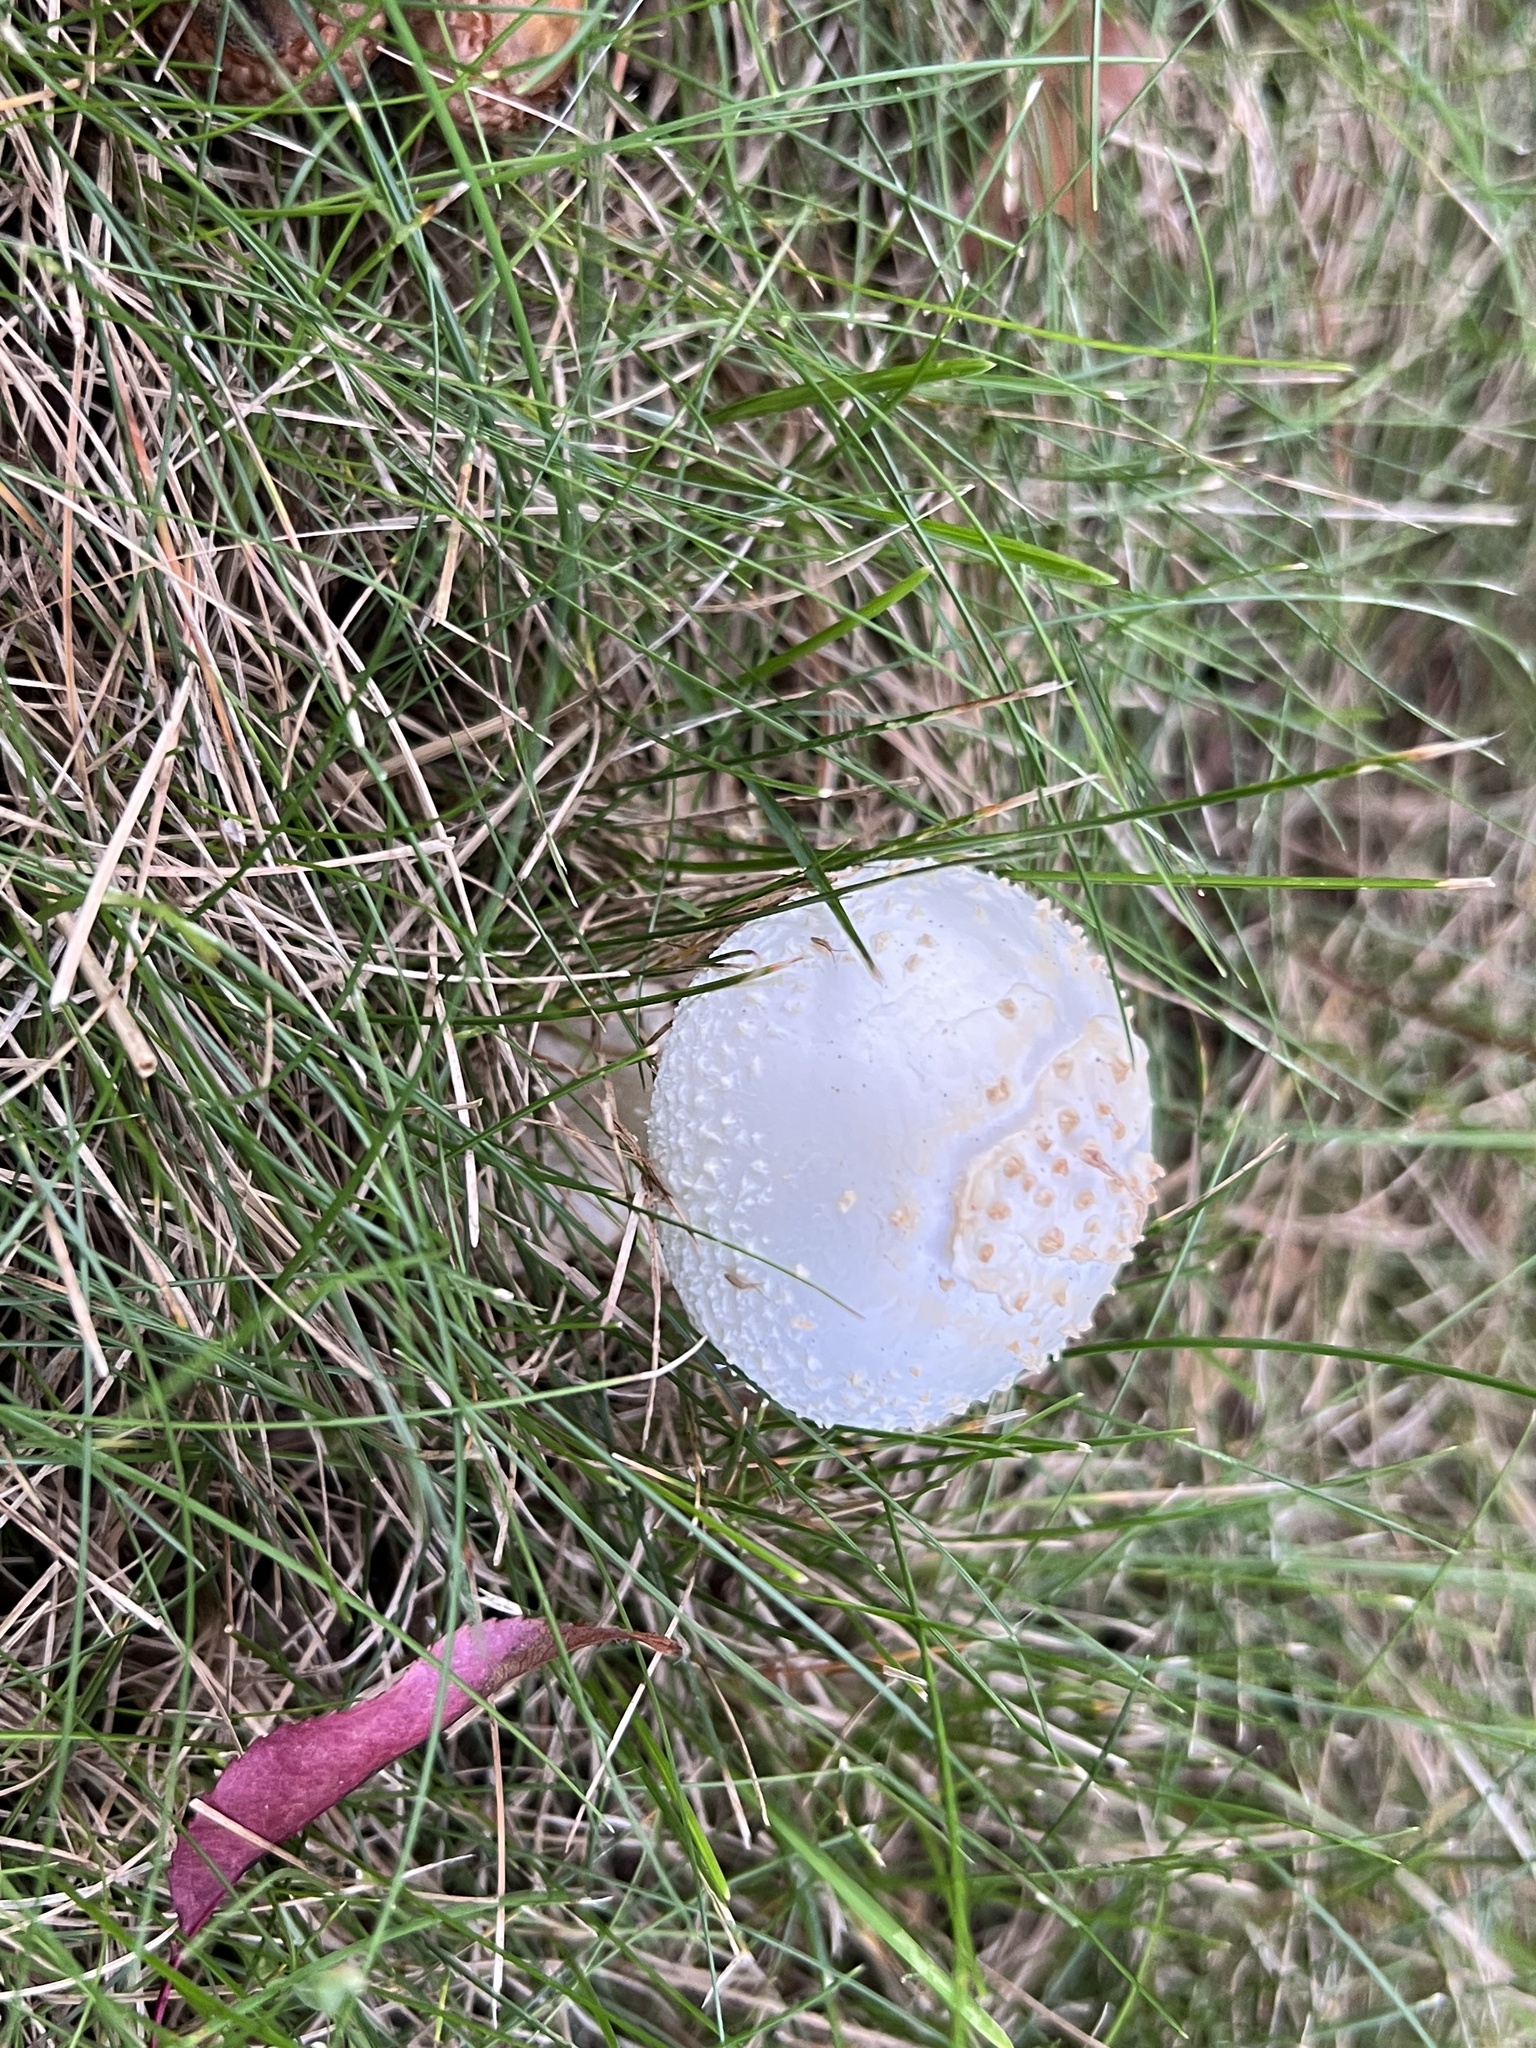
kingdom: Fungi
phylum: Basidiomycota
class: Agaricomycetes
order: Agaricales
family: Amanitaceae
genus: Amanita
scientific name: Amanita abrupta
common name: American abrupt-bulbed lepidella
